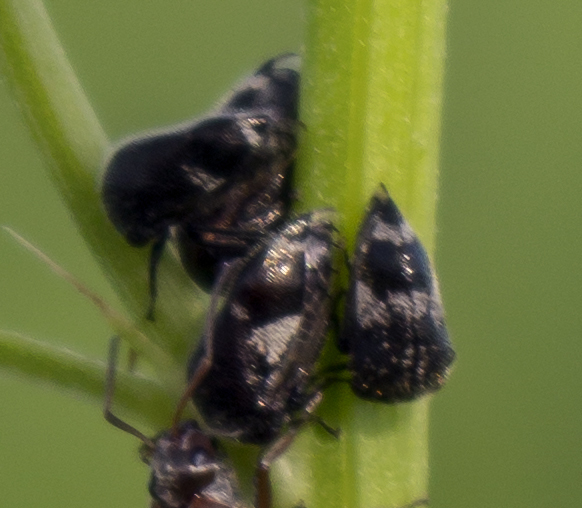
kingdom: Animalia
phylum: Arthropoda
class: Insecta
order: Hemiptera
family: Membracidae
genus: Vanduzea
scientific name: Vanduzea triguttata
